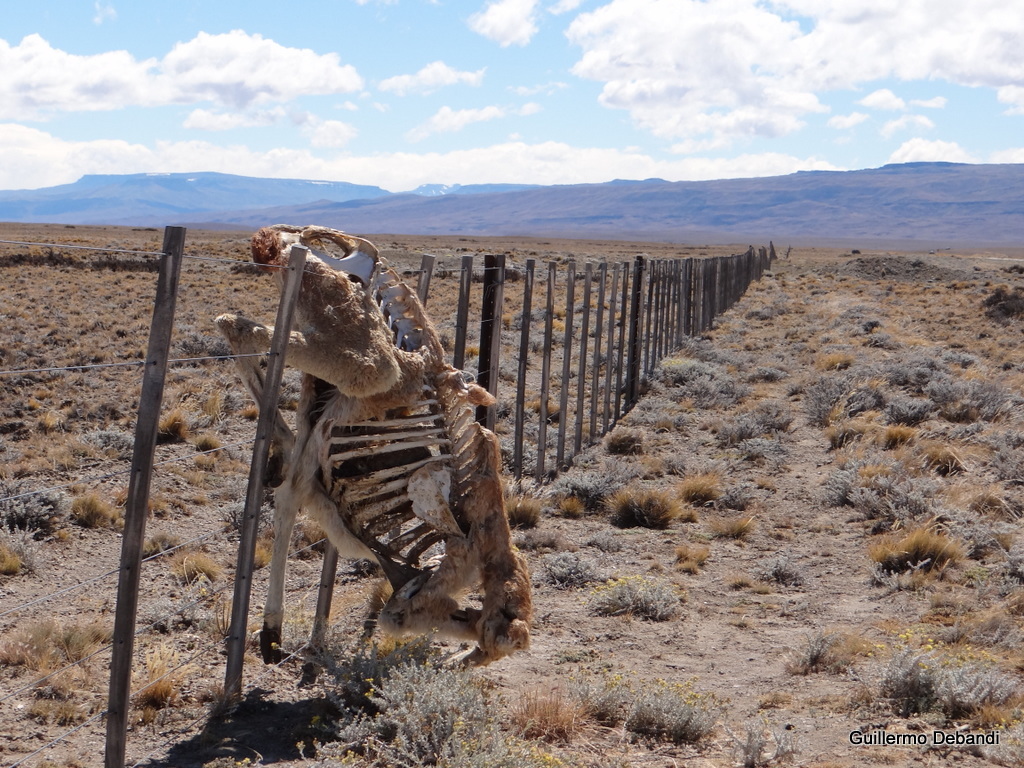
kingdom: Animalia
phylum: Chordata
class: Mammalia
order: Artiodactyla
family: Camelidae
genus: Lama
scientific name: Lama glama
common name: Llama
